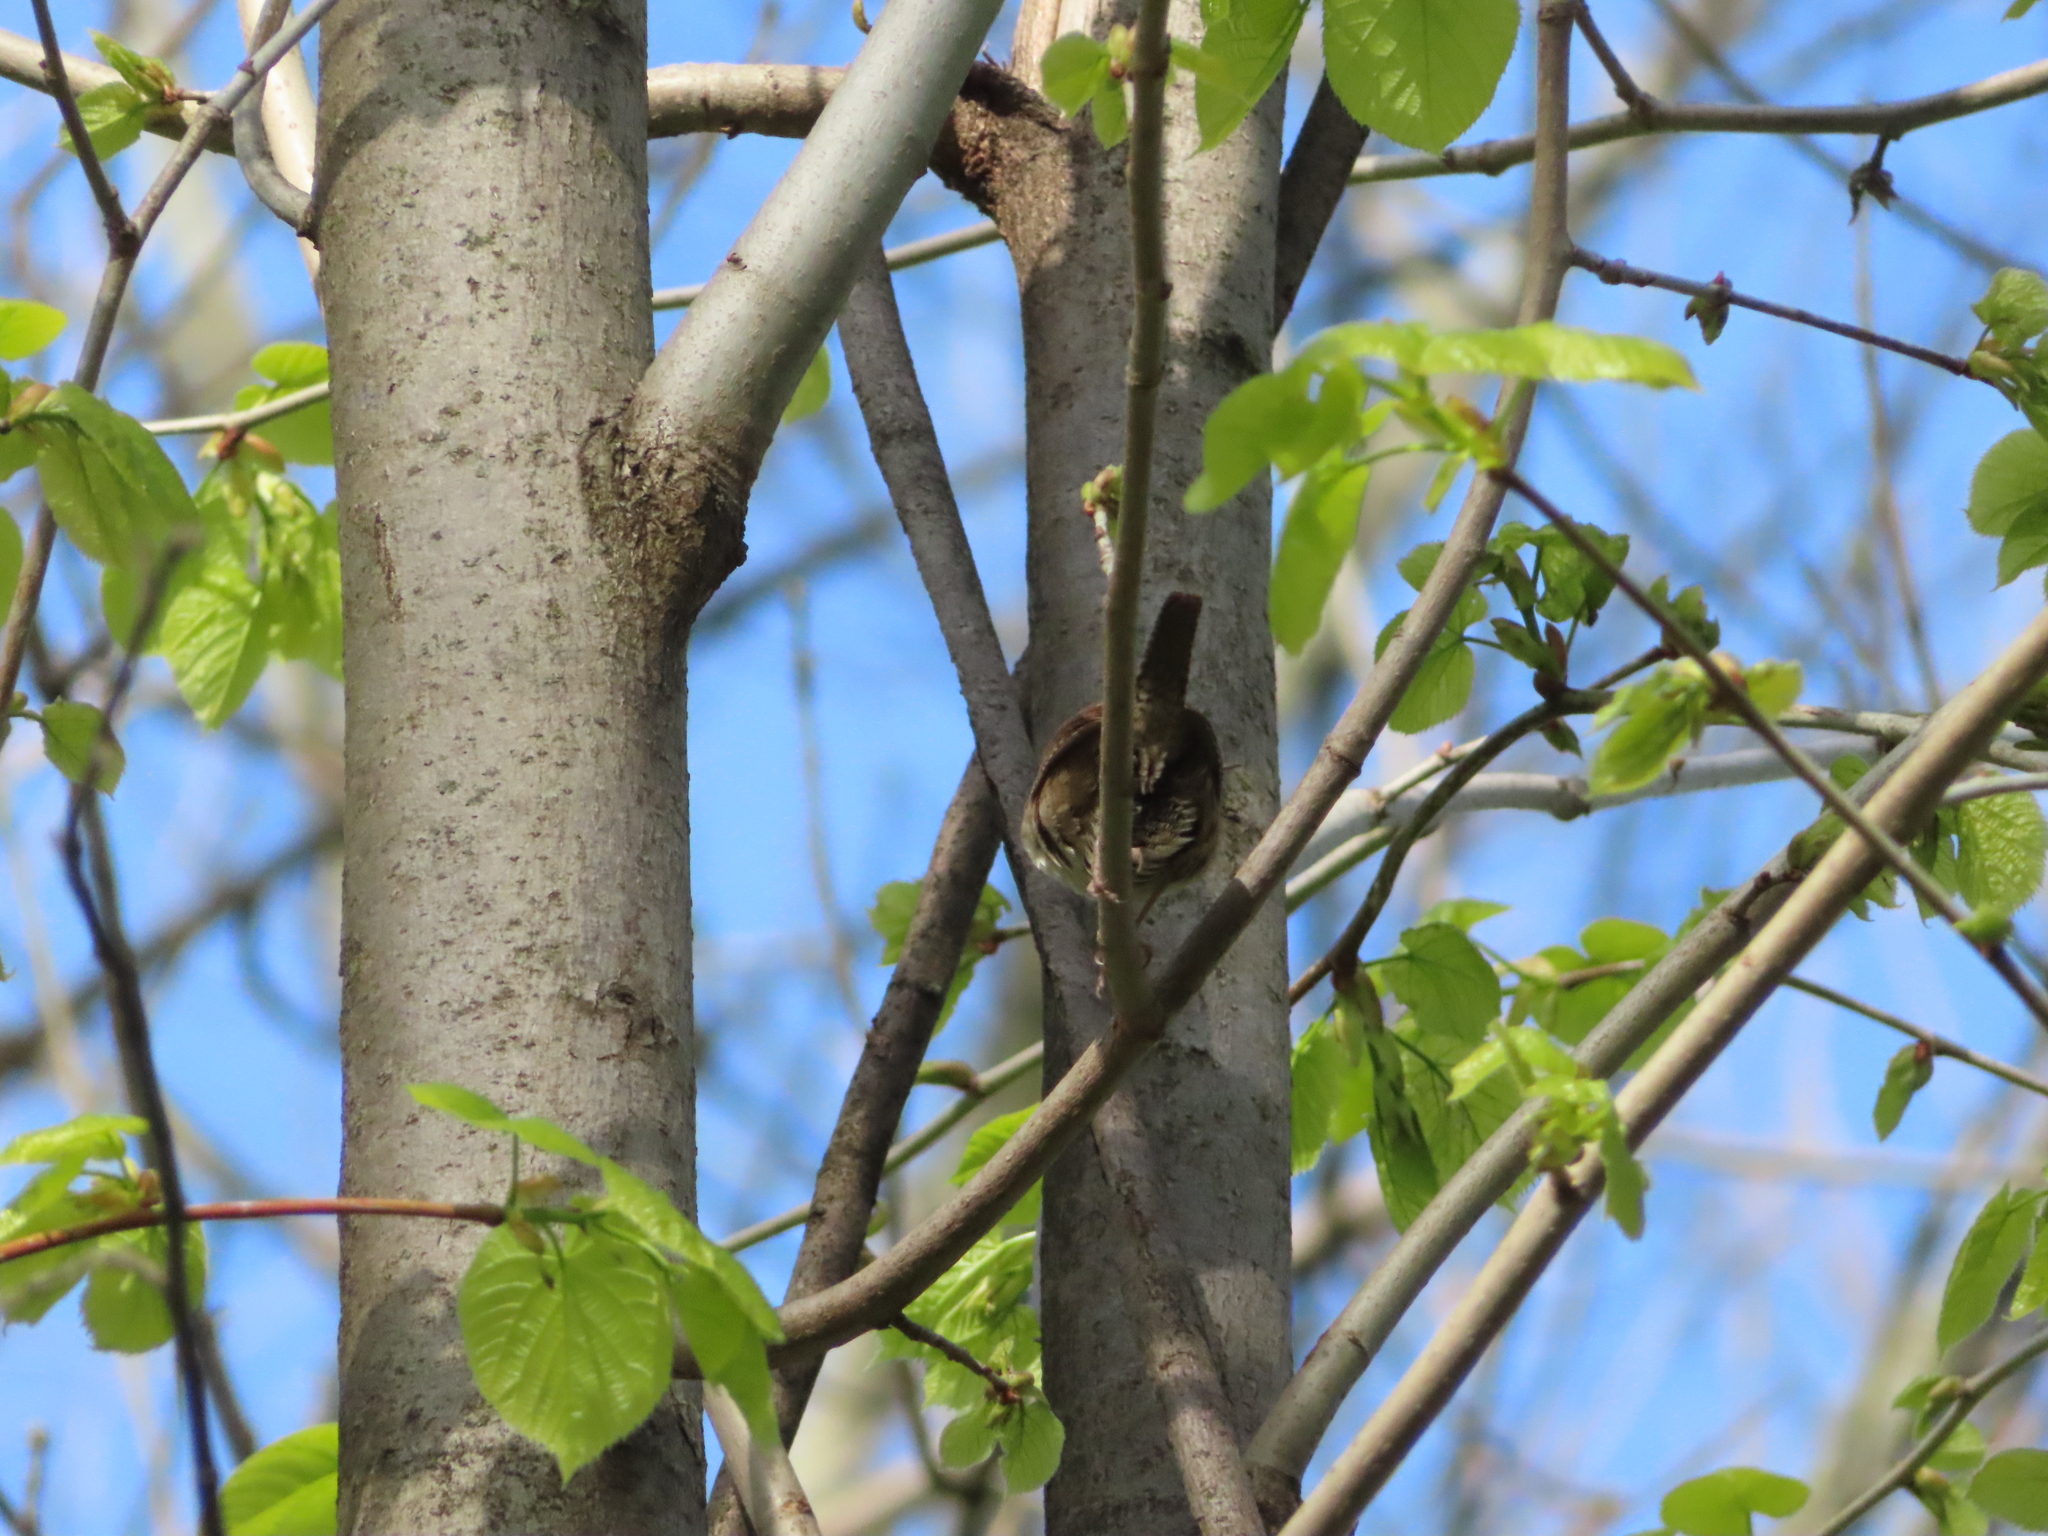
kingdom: Animalia
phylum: Chordata
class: Aves
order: Passeriformes
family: Troglodytidae
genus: Troglodytes
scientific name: Troglodytes aedon
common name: House wren
